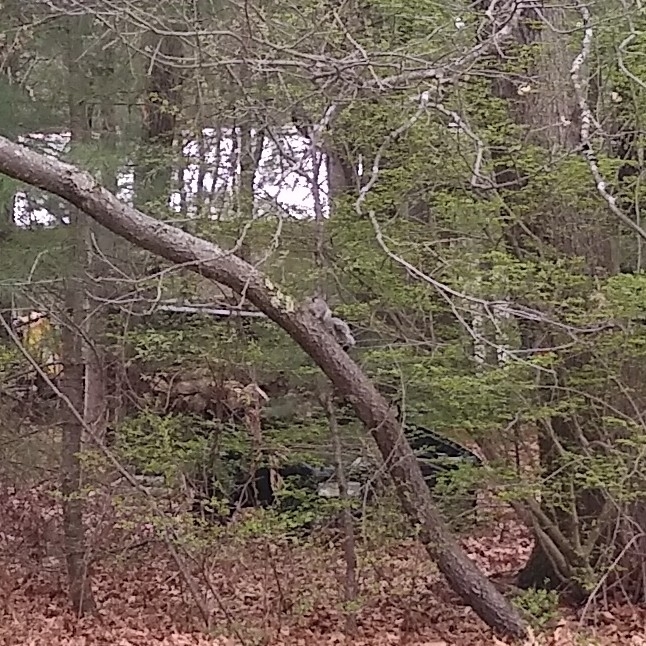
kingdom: Animalia
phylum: Chordata
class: Mammalia
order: Rodentia
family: Sciuridae
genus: Sciurus
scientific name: Sciurus carolinensis
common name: Eastern gray squirrel
